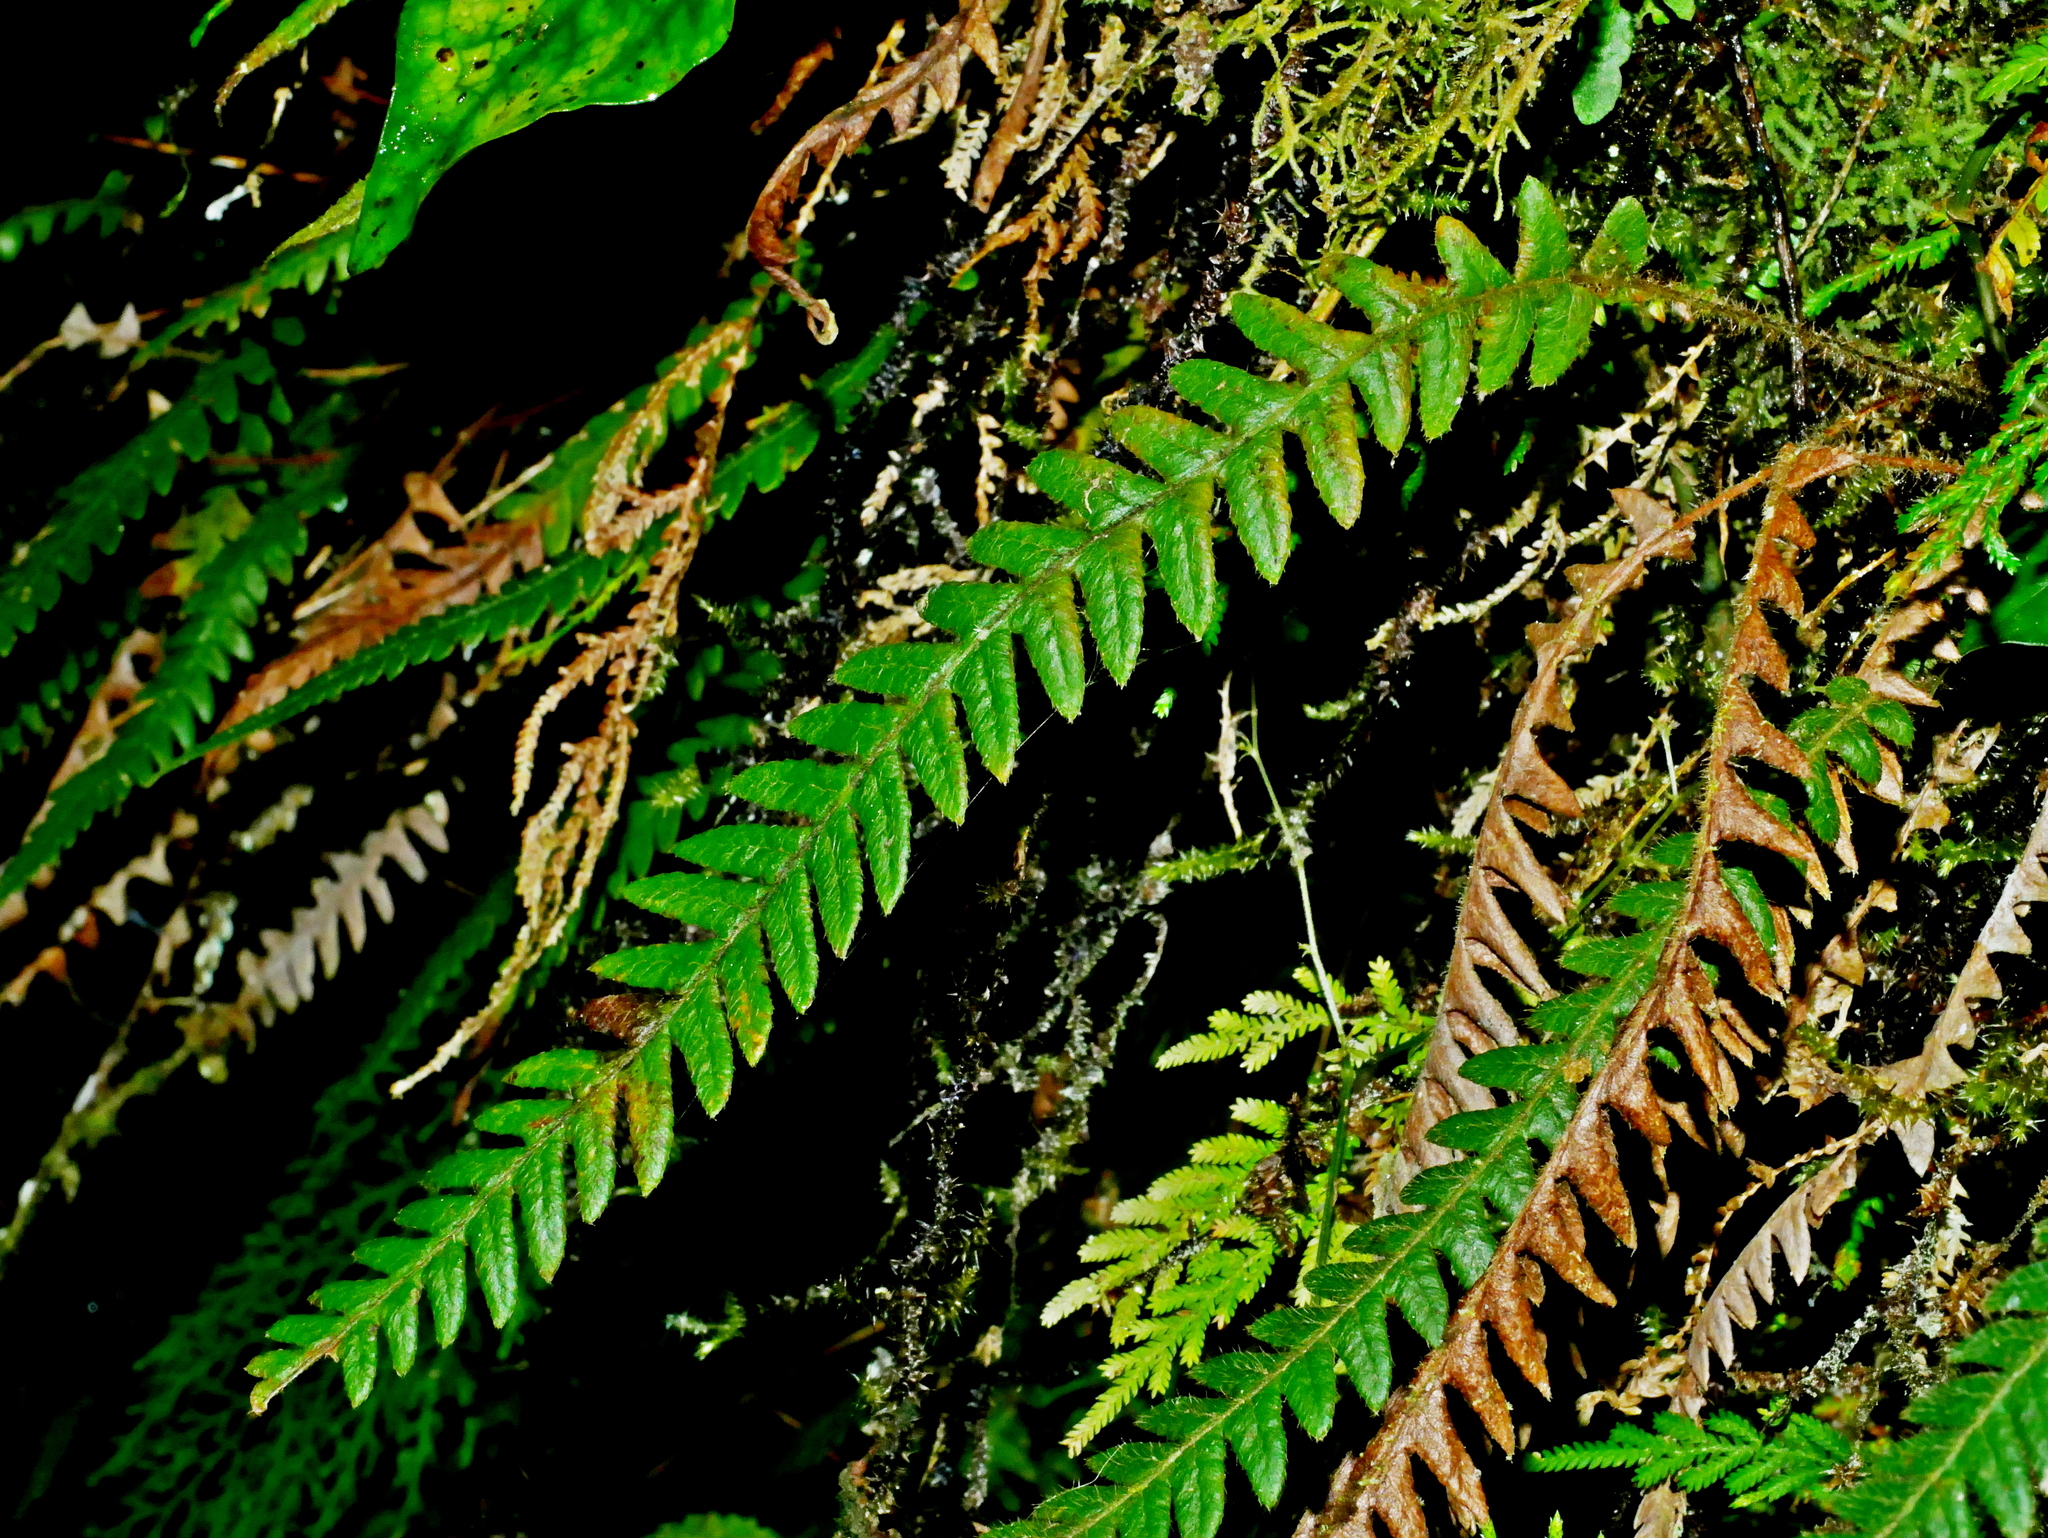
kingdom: Plantae
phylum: Tracheophyta
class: Polypodiopsida
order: Polypodiales
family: Thelypteridaceae
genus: Phegopteris
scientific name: Phegopteris decursive-pinnata
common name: Japanese beech fern
